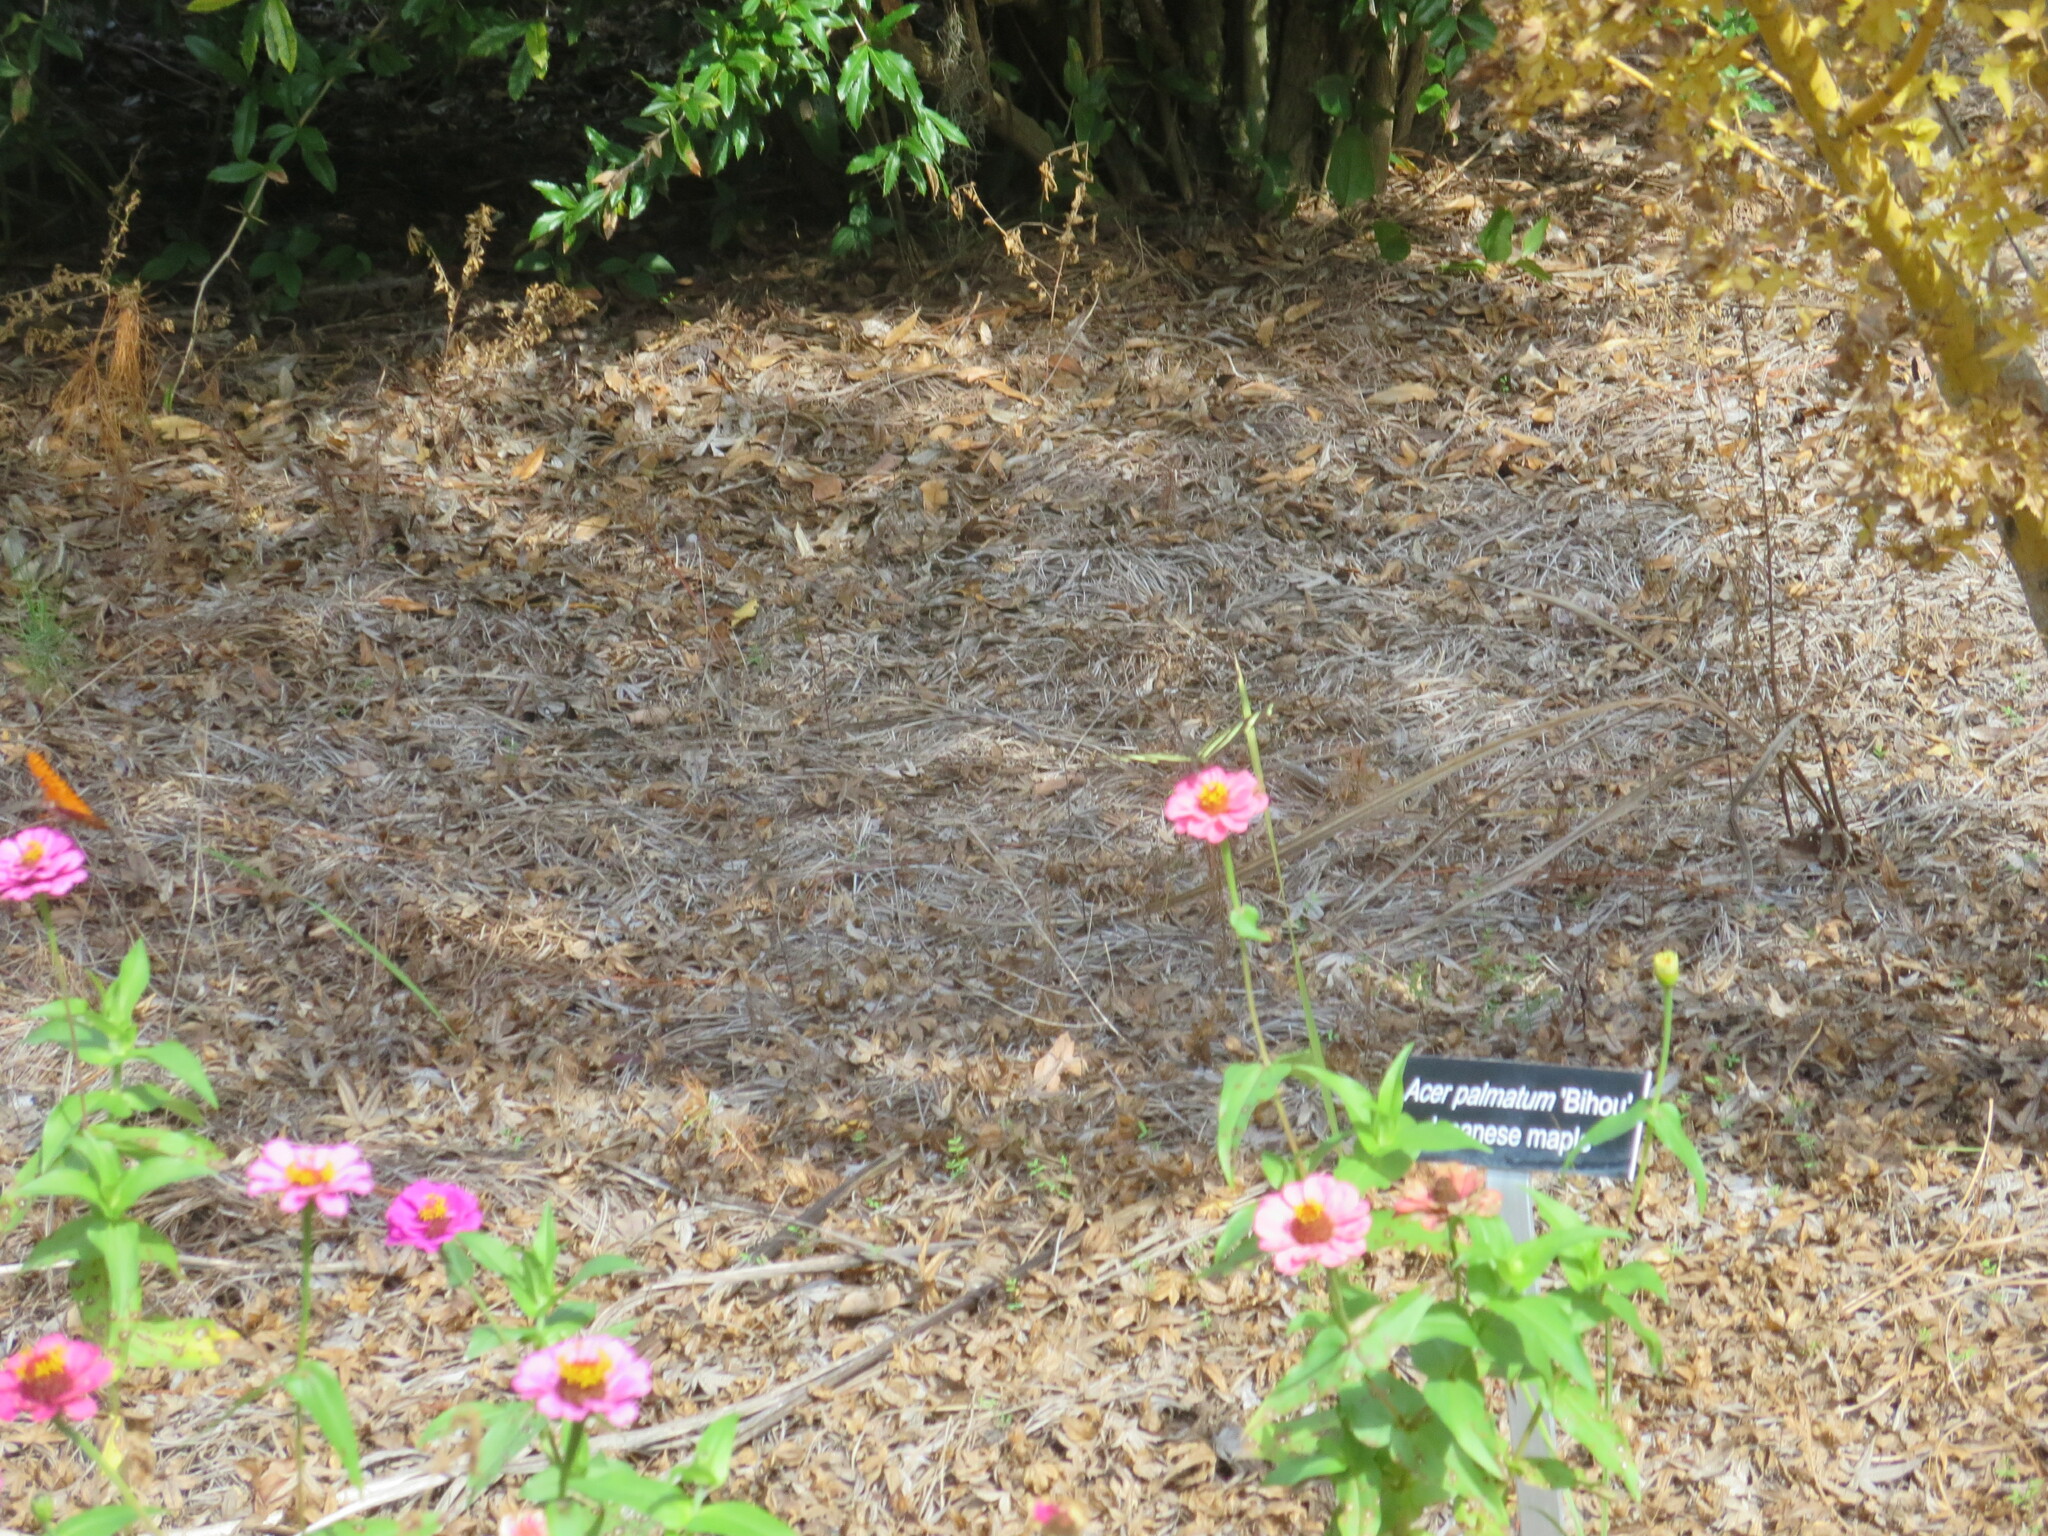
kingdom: Animalia
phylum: Arthropoda
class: Insecta
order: Lepidoptera
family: Nymphalidae
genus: Heliconius
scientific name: Heliconius charithonia
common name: Zebra long wing
